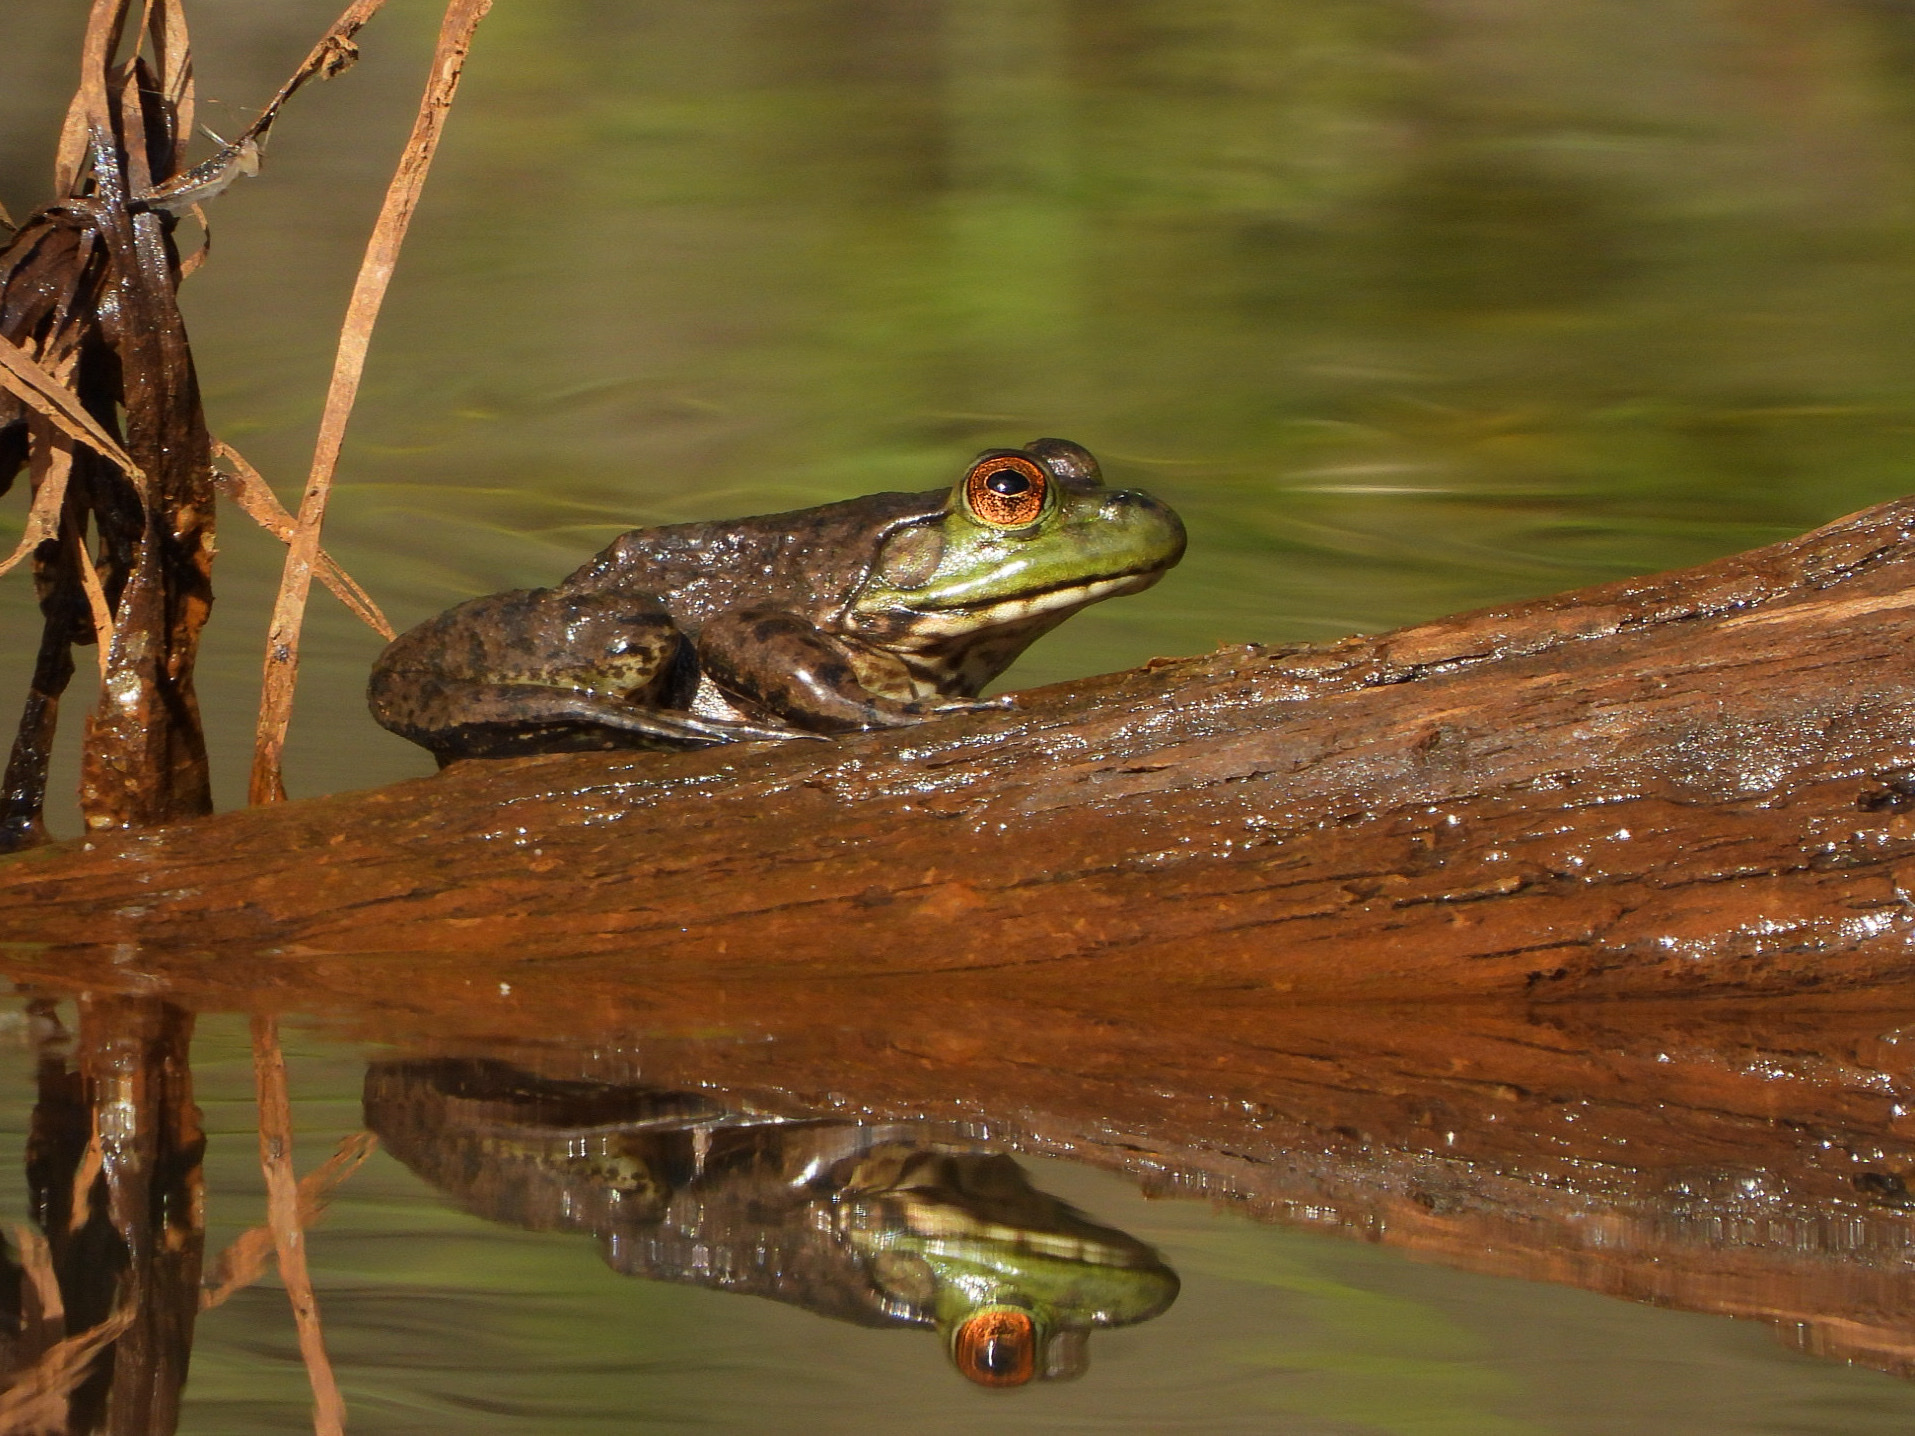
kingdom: Animalia
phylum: Chordata
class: Amphibia
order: Anura
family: Ranidae
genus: Lithobates
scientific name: Lithobates catesbeianus
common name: American bullfrog
